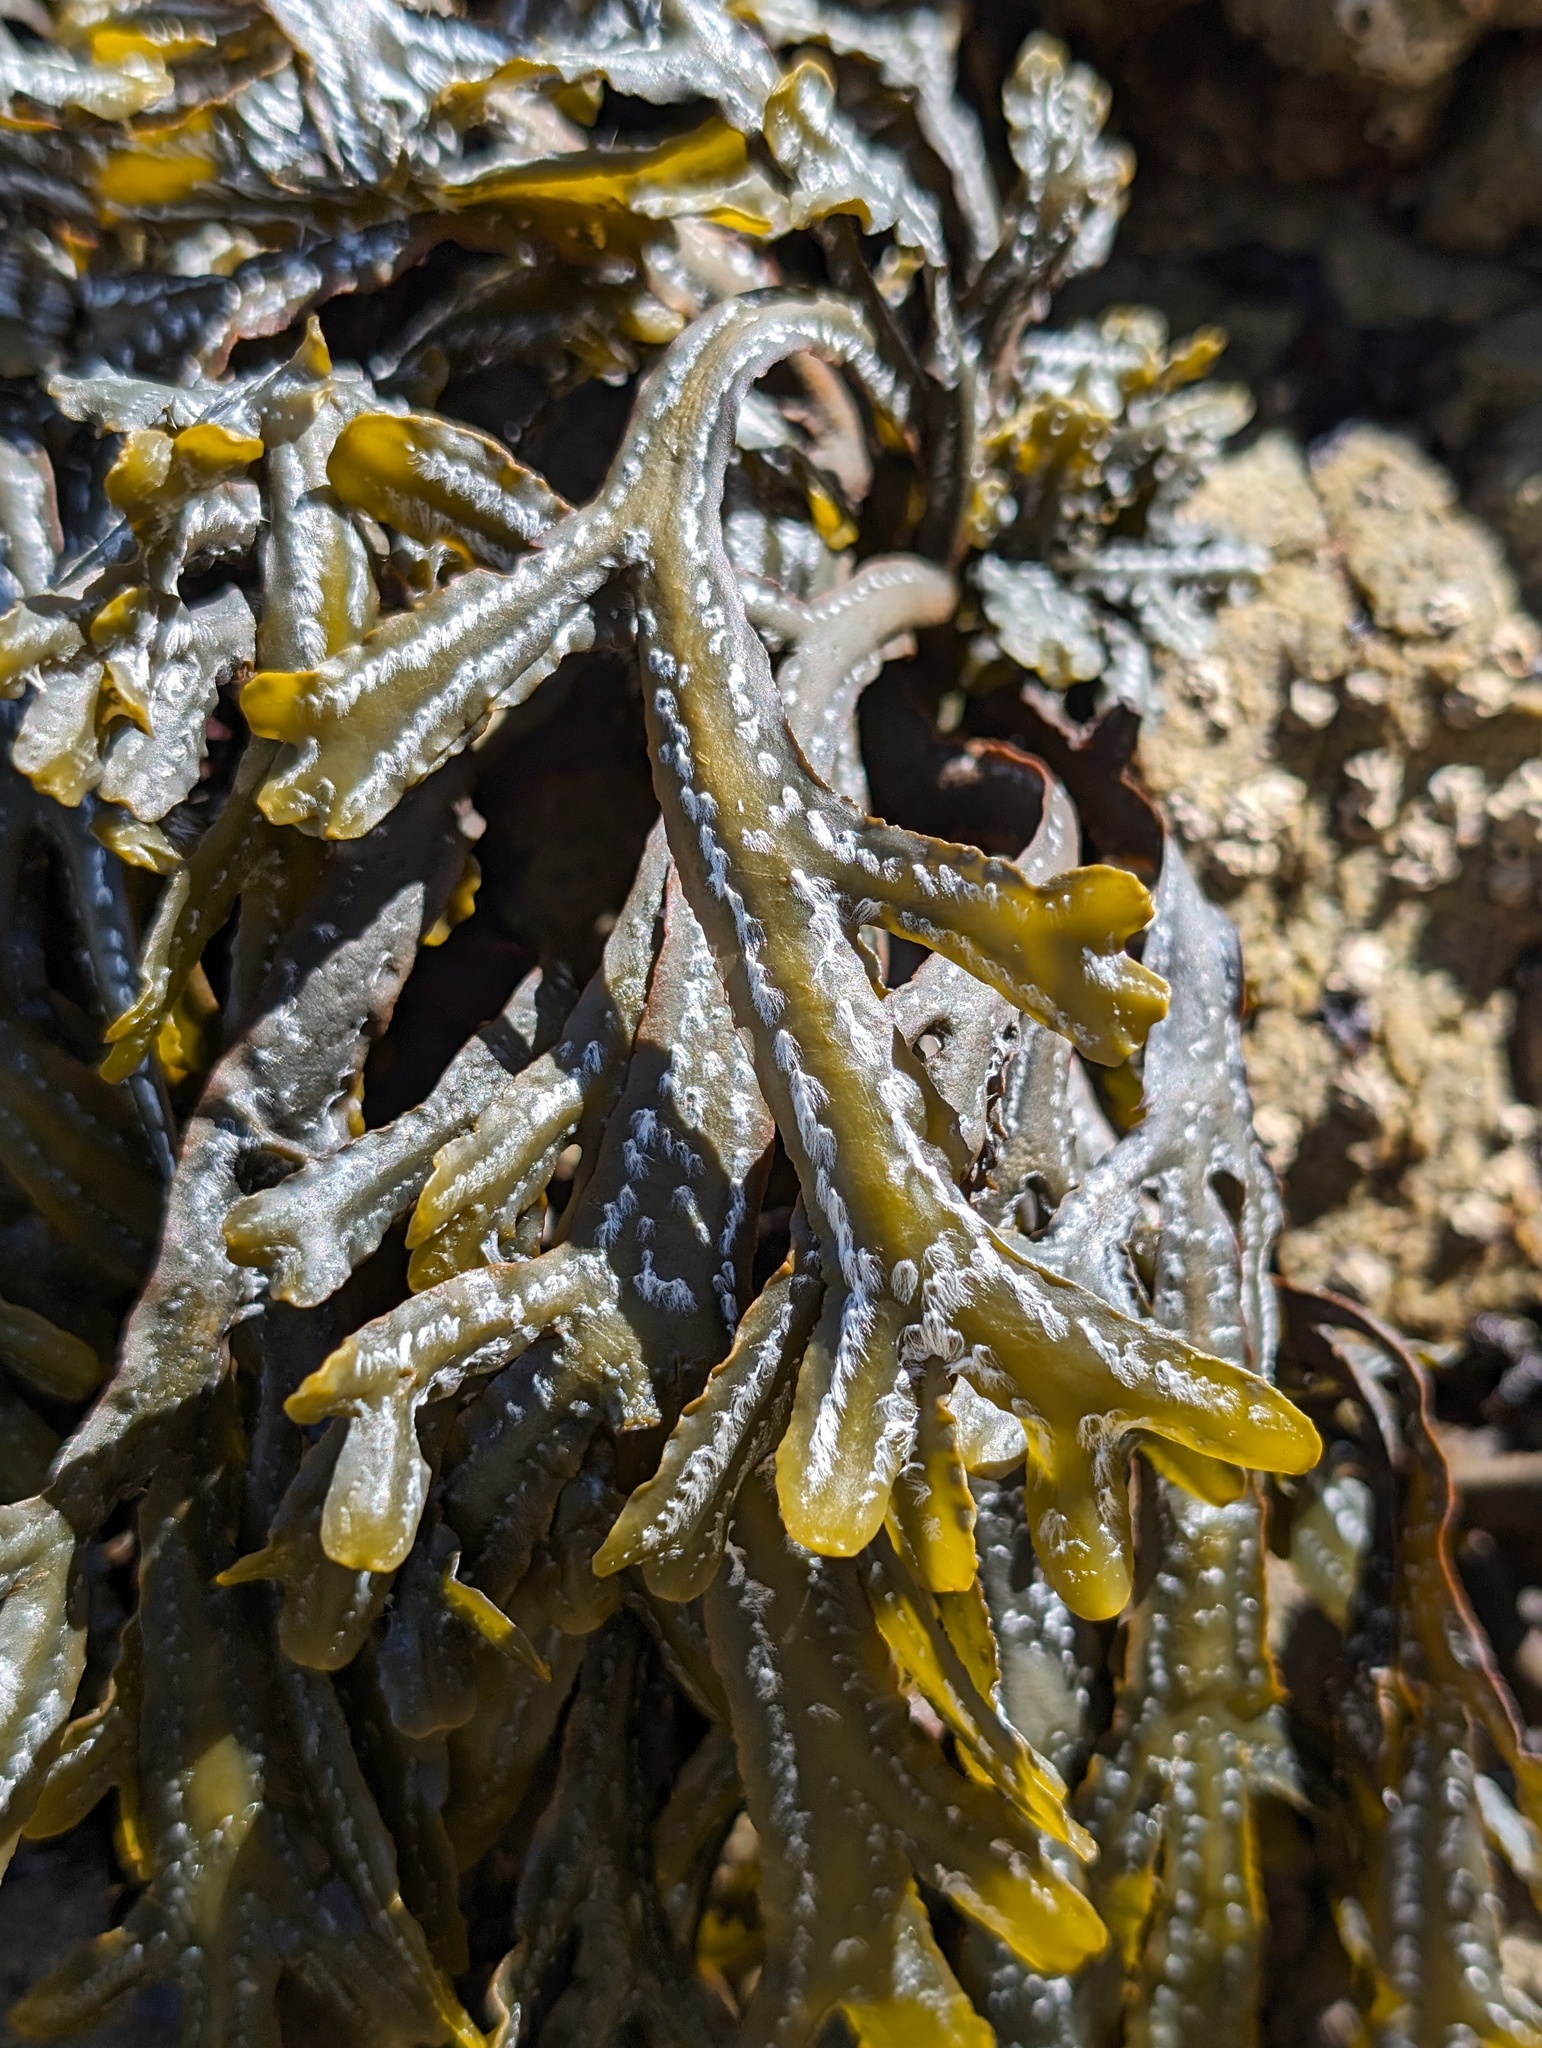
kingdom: Chromista
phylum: Ochrophyta
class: Phaeophyceae
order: Fucales
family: Fucaceae
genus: Pelvetiopsis
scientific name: Pelvetiopsis
